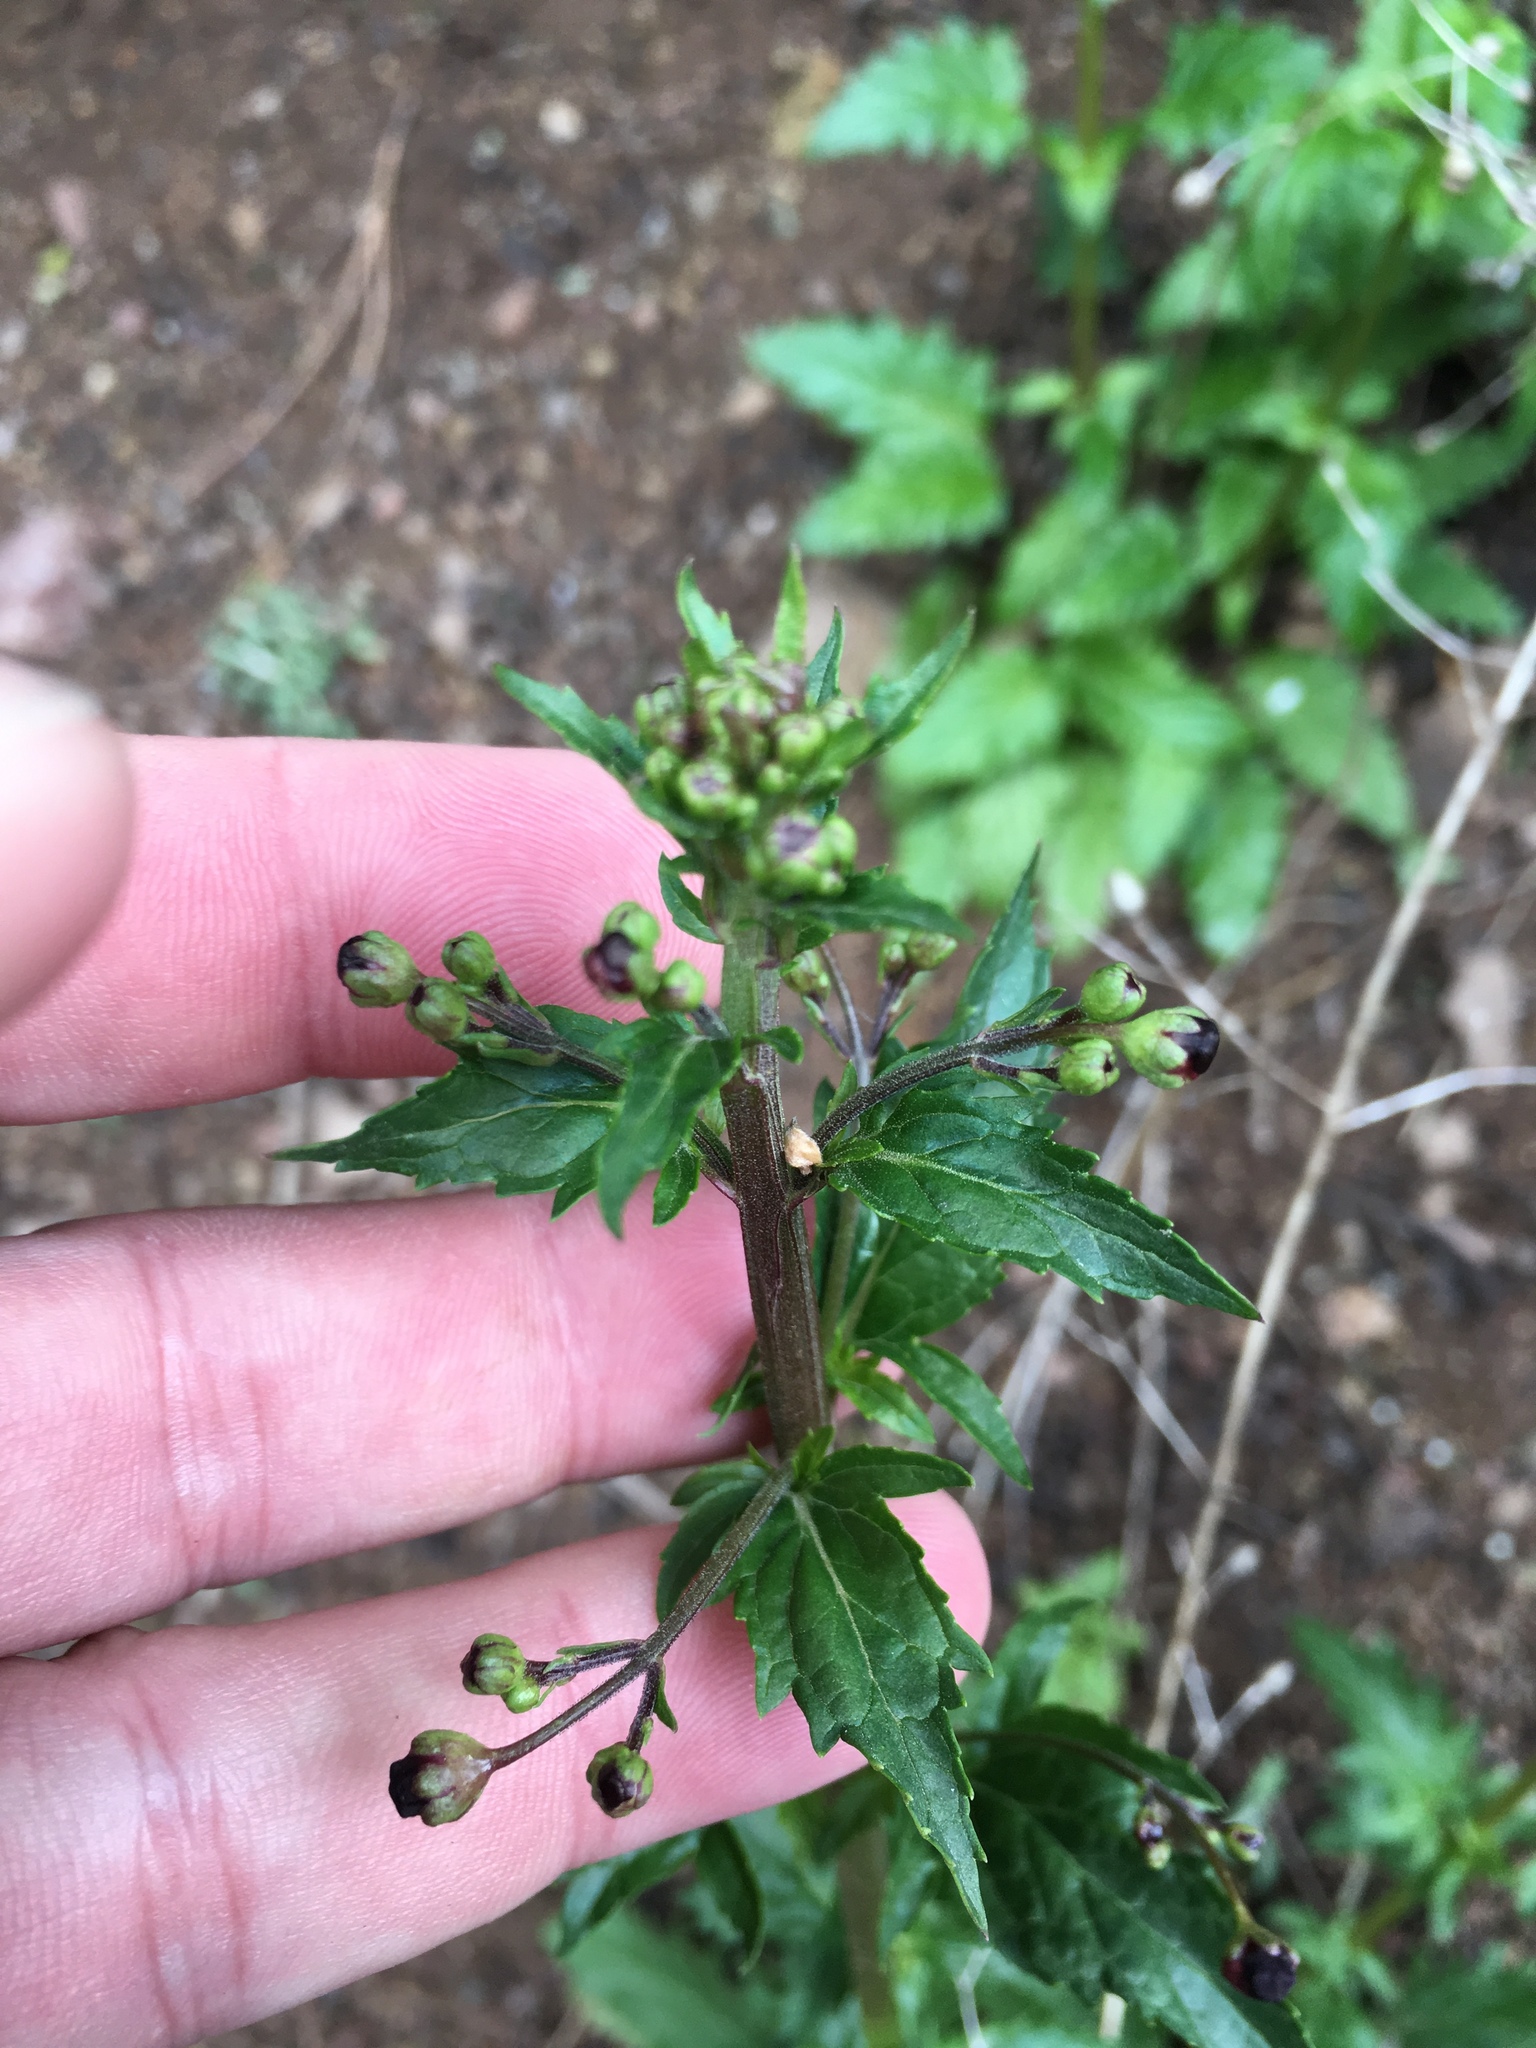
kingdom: Plantae
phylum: Tracheophyta
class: Magnoliopsida
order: Lamiales
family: Scrophulariaceae
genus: Scrophularia
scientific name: Scrophularia californica
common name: California figwort
